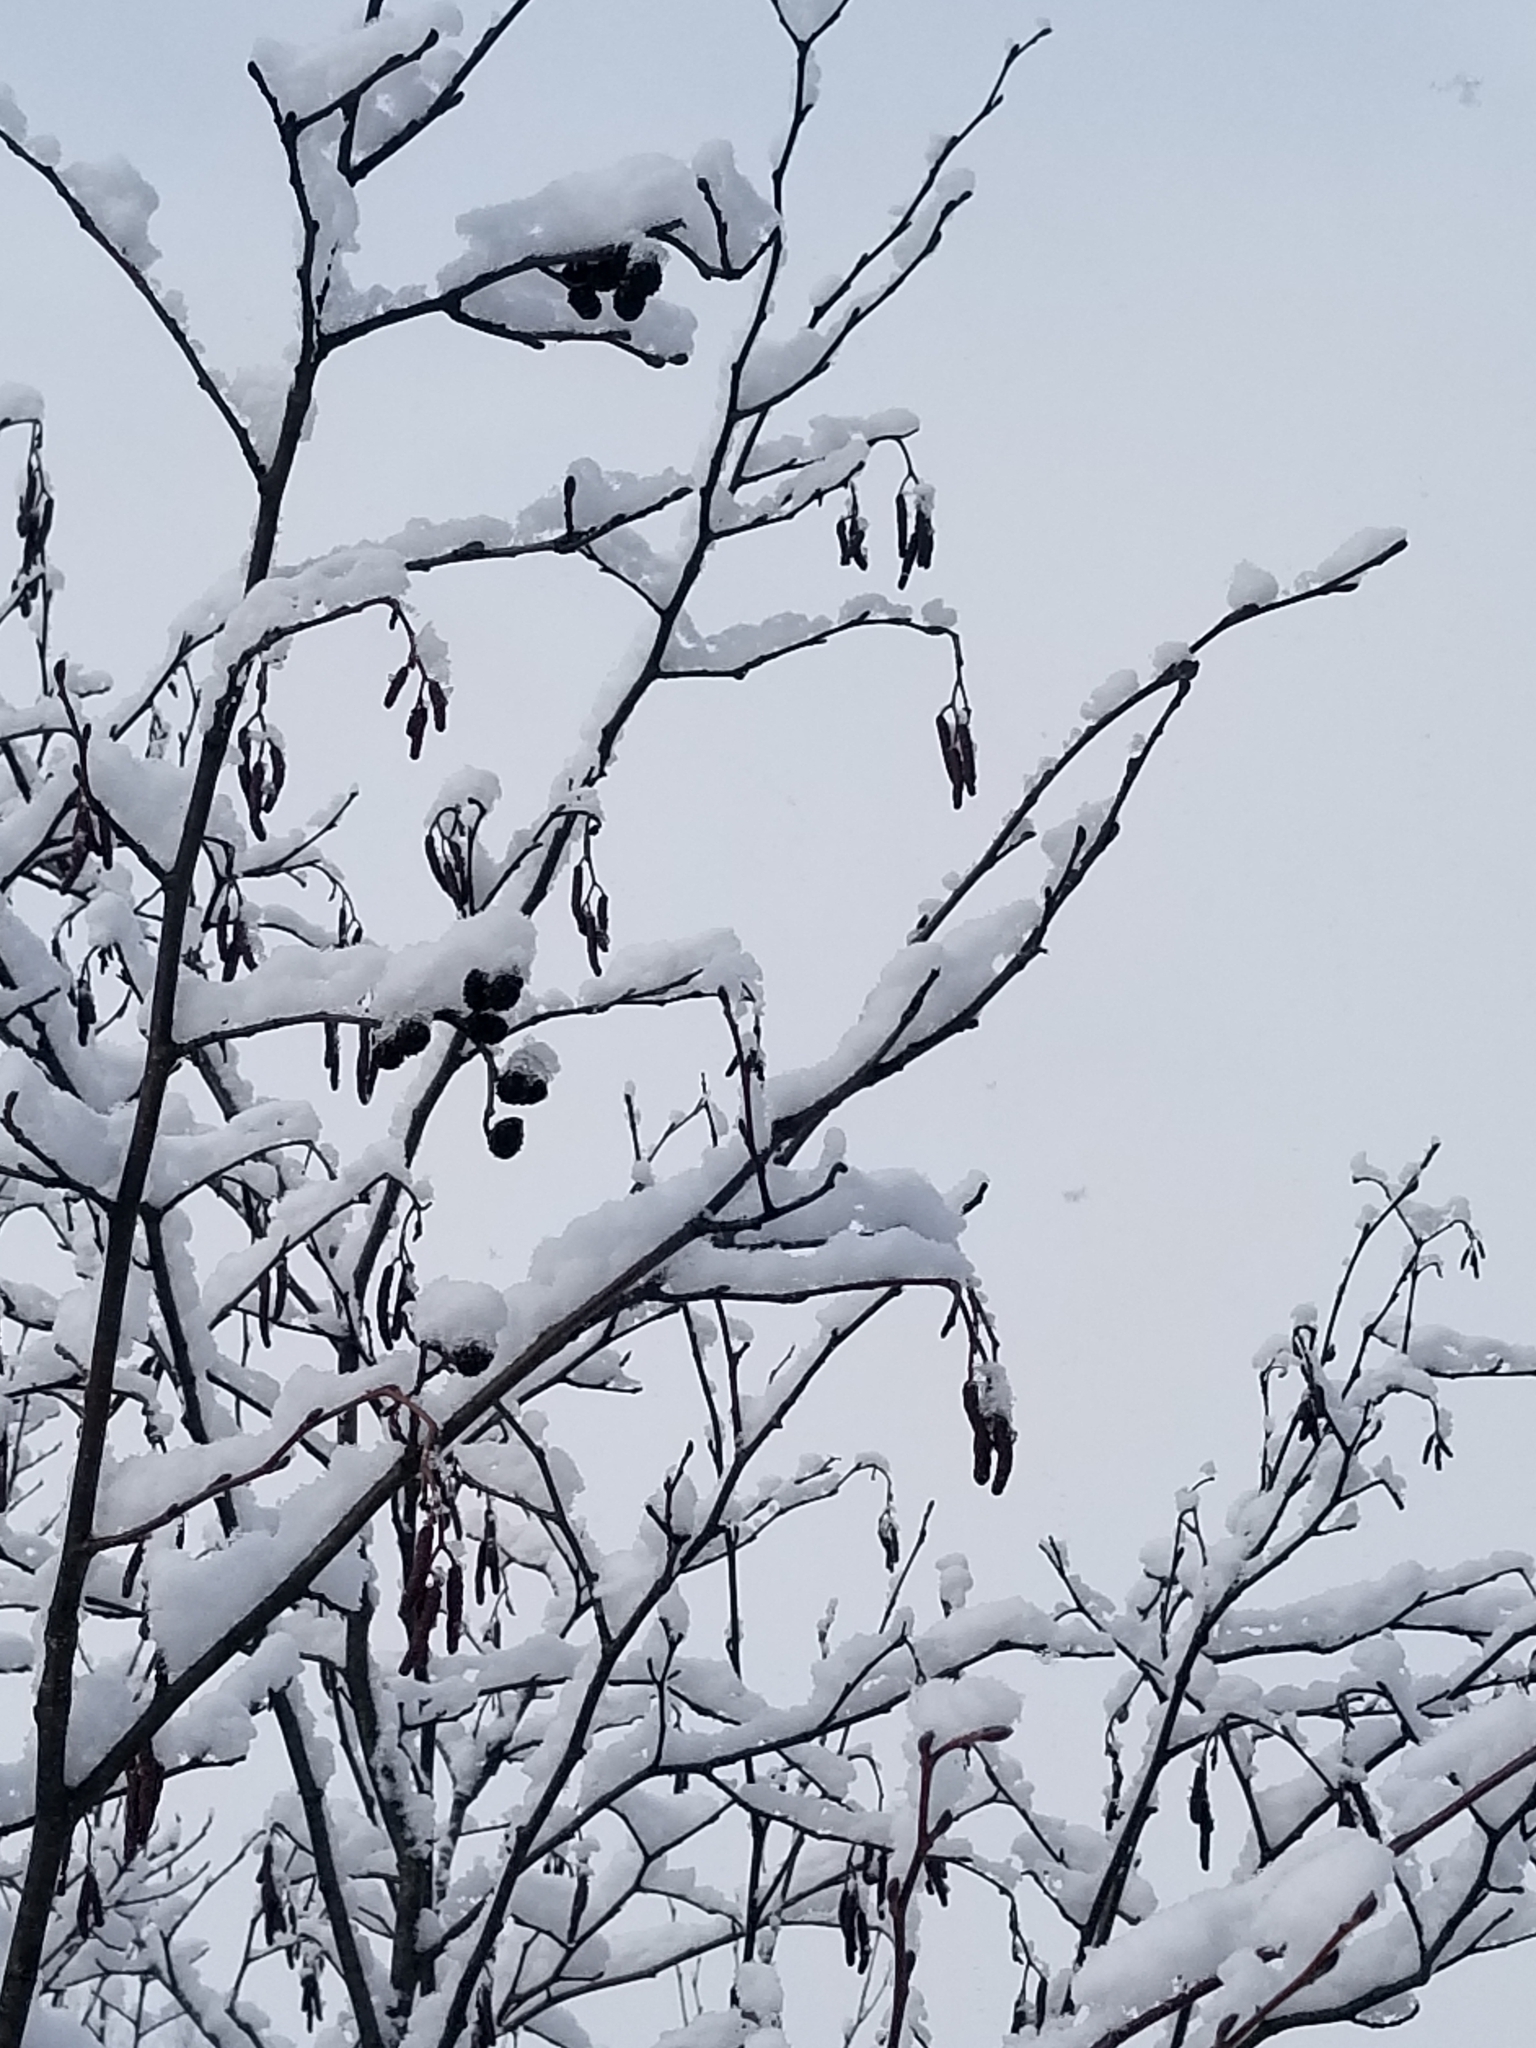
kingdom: Plantae
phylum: Tracheophyta
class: Magnoliopsida
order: Fagales
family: Betulaceae
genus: Alnus
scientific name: Alnus incana
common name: Grey alder
